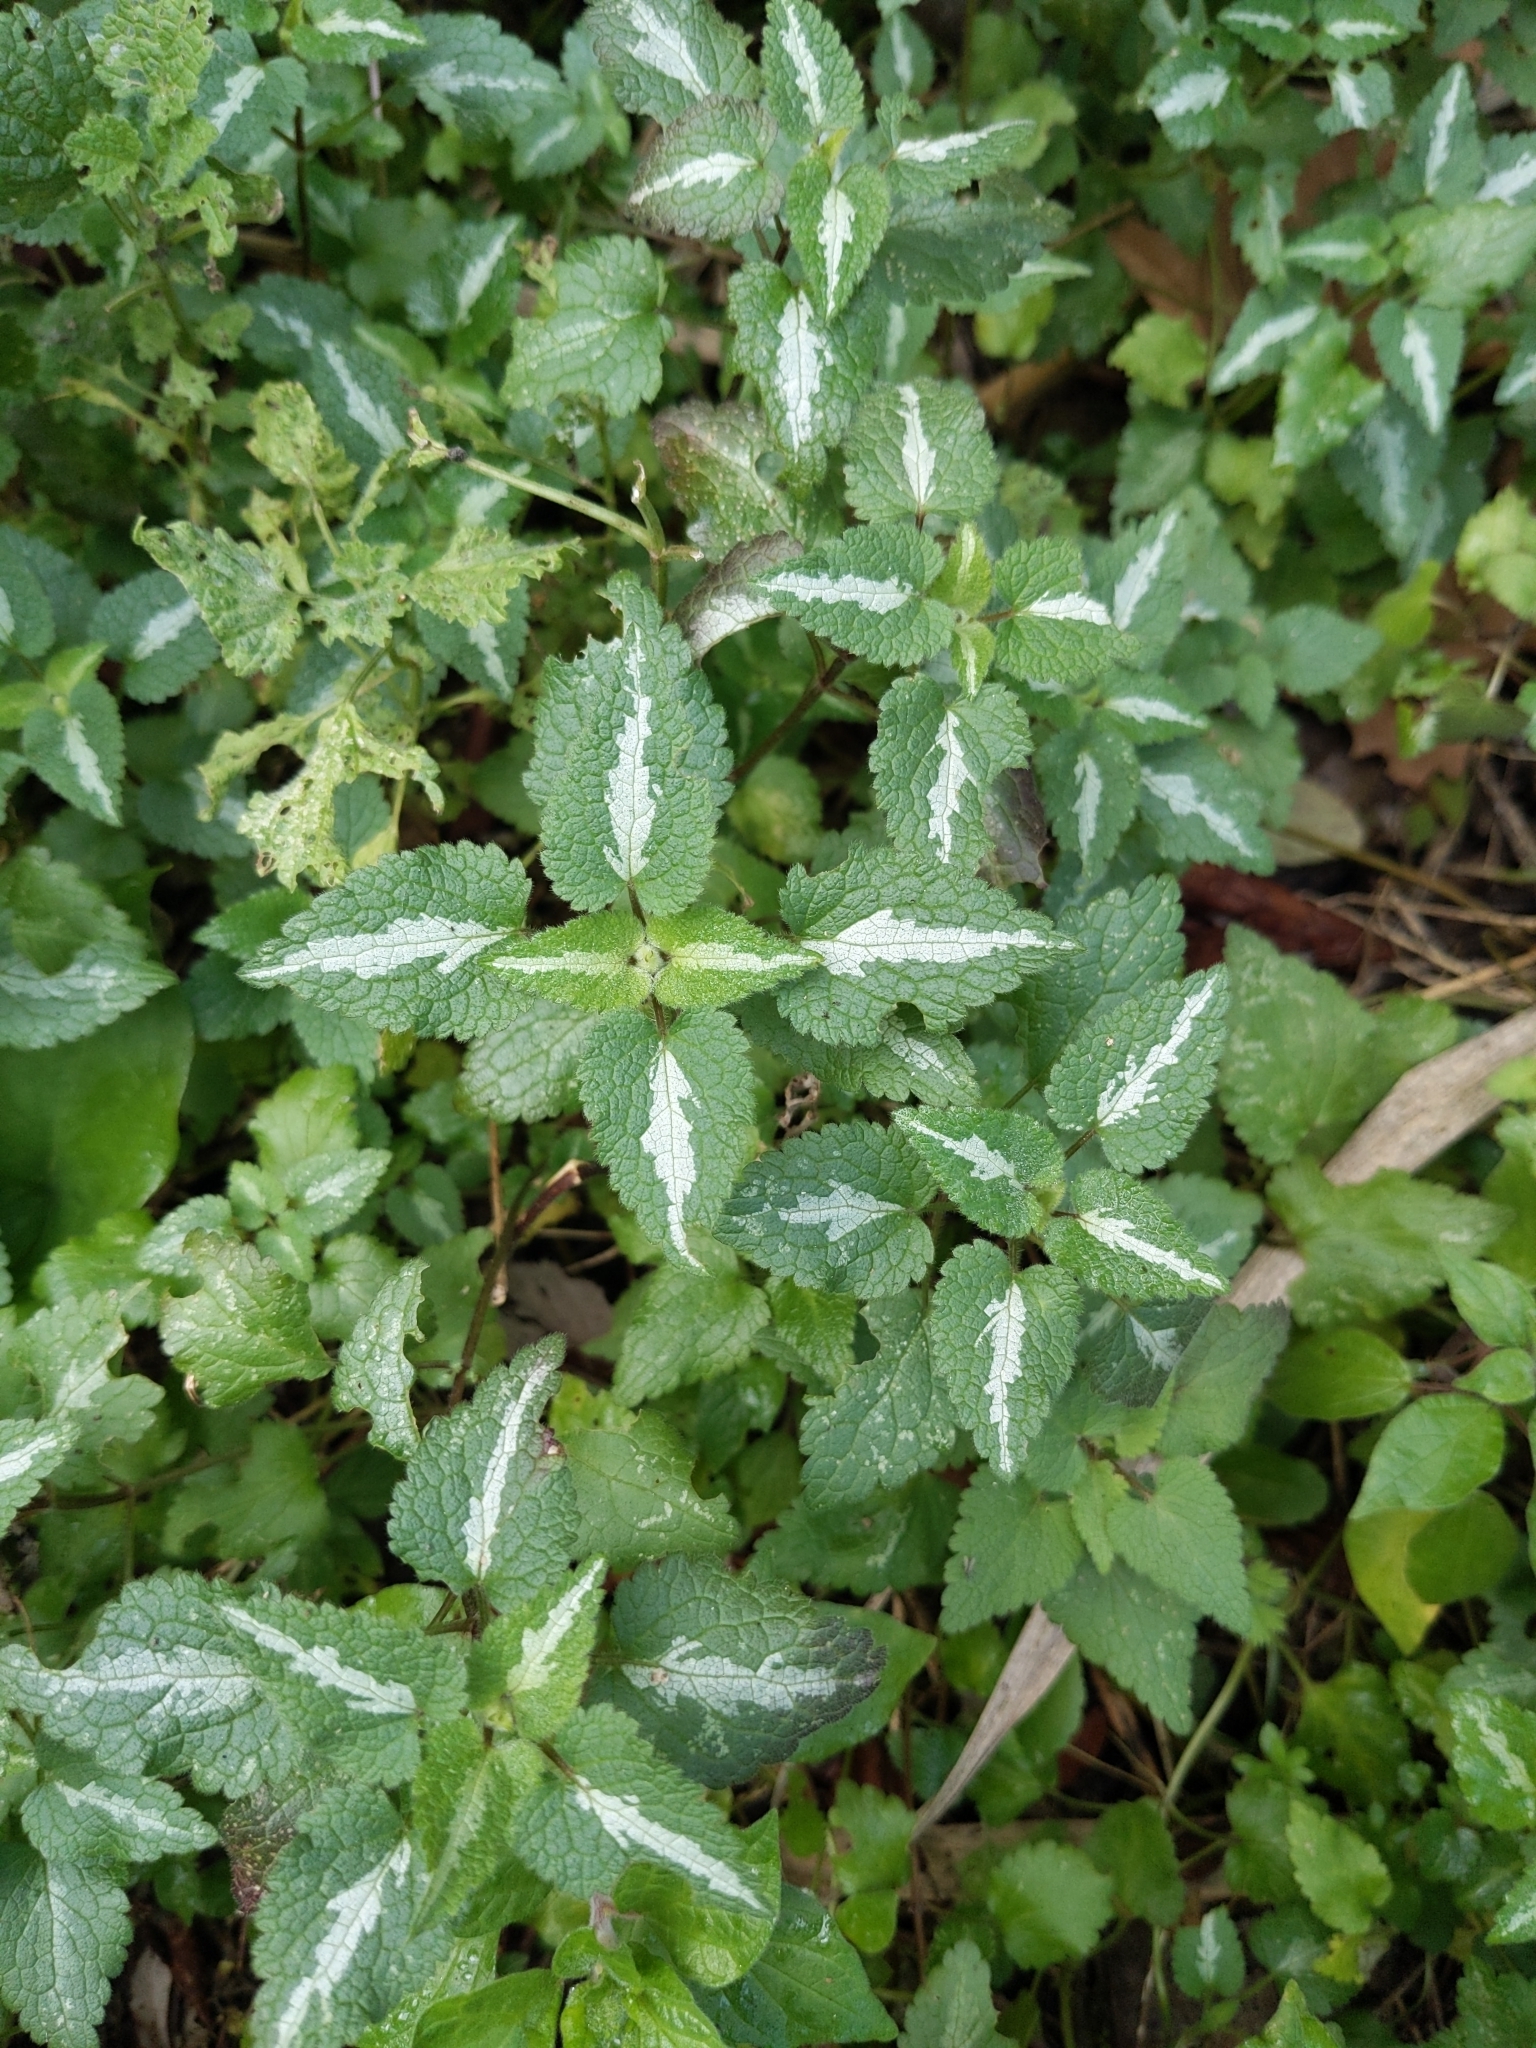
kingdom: Plantae
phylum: Tracheophyta
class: Magnoliopsida
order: Lamiales
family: Lamiaceae
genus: Lamium
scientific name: Lamium maculatum
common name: Spotted dead-nettle
